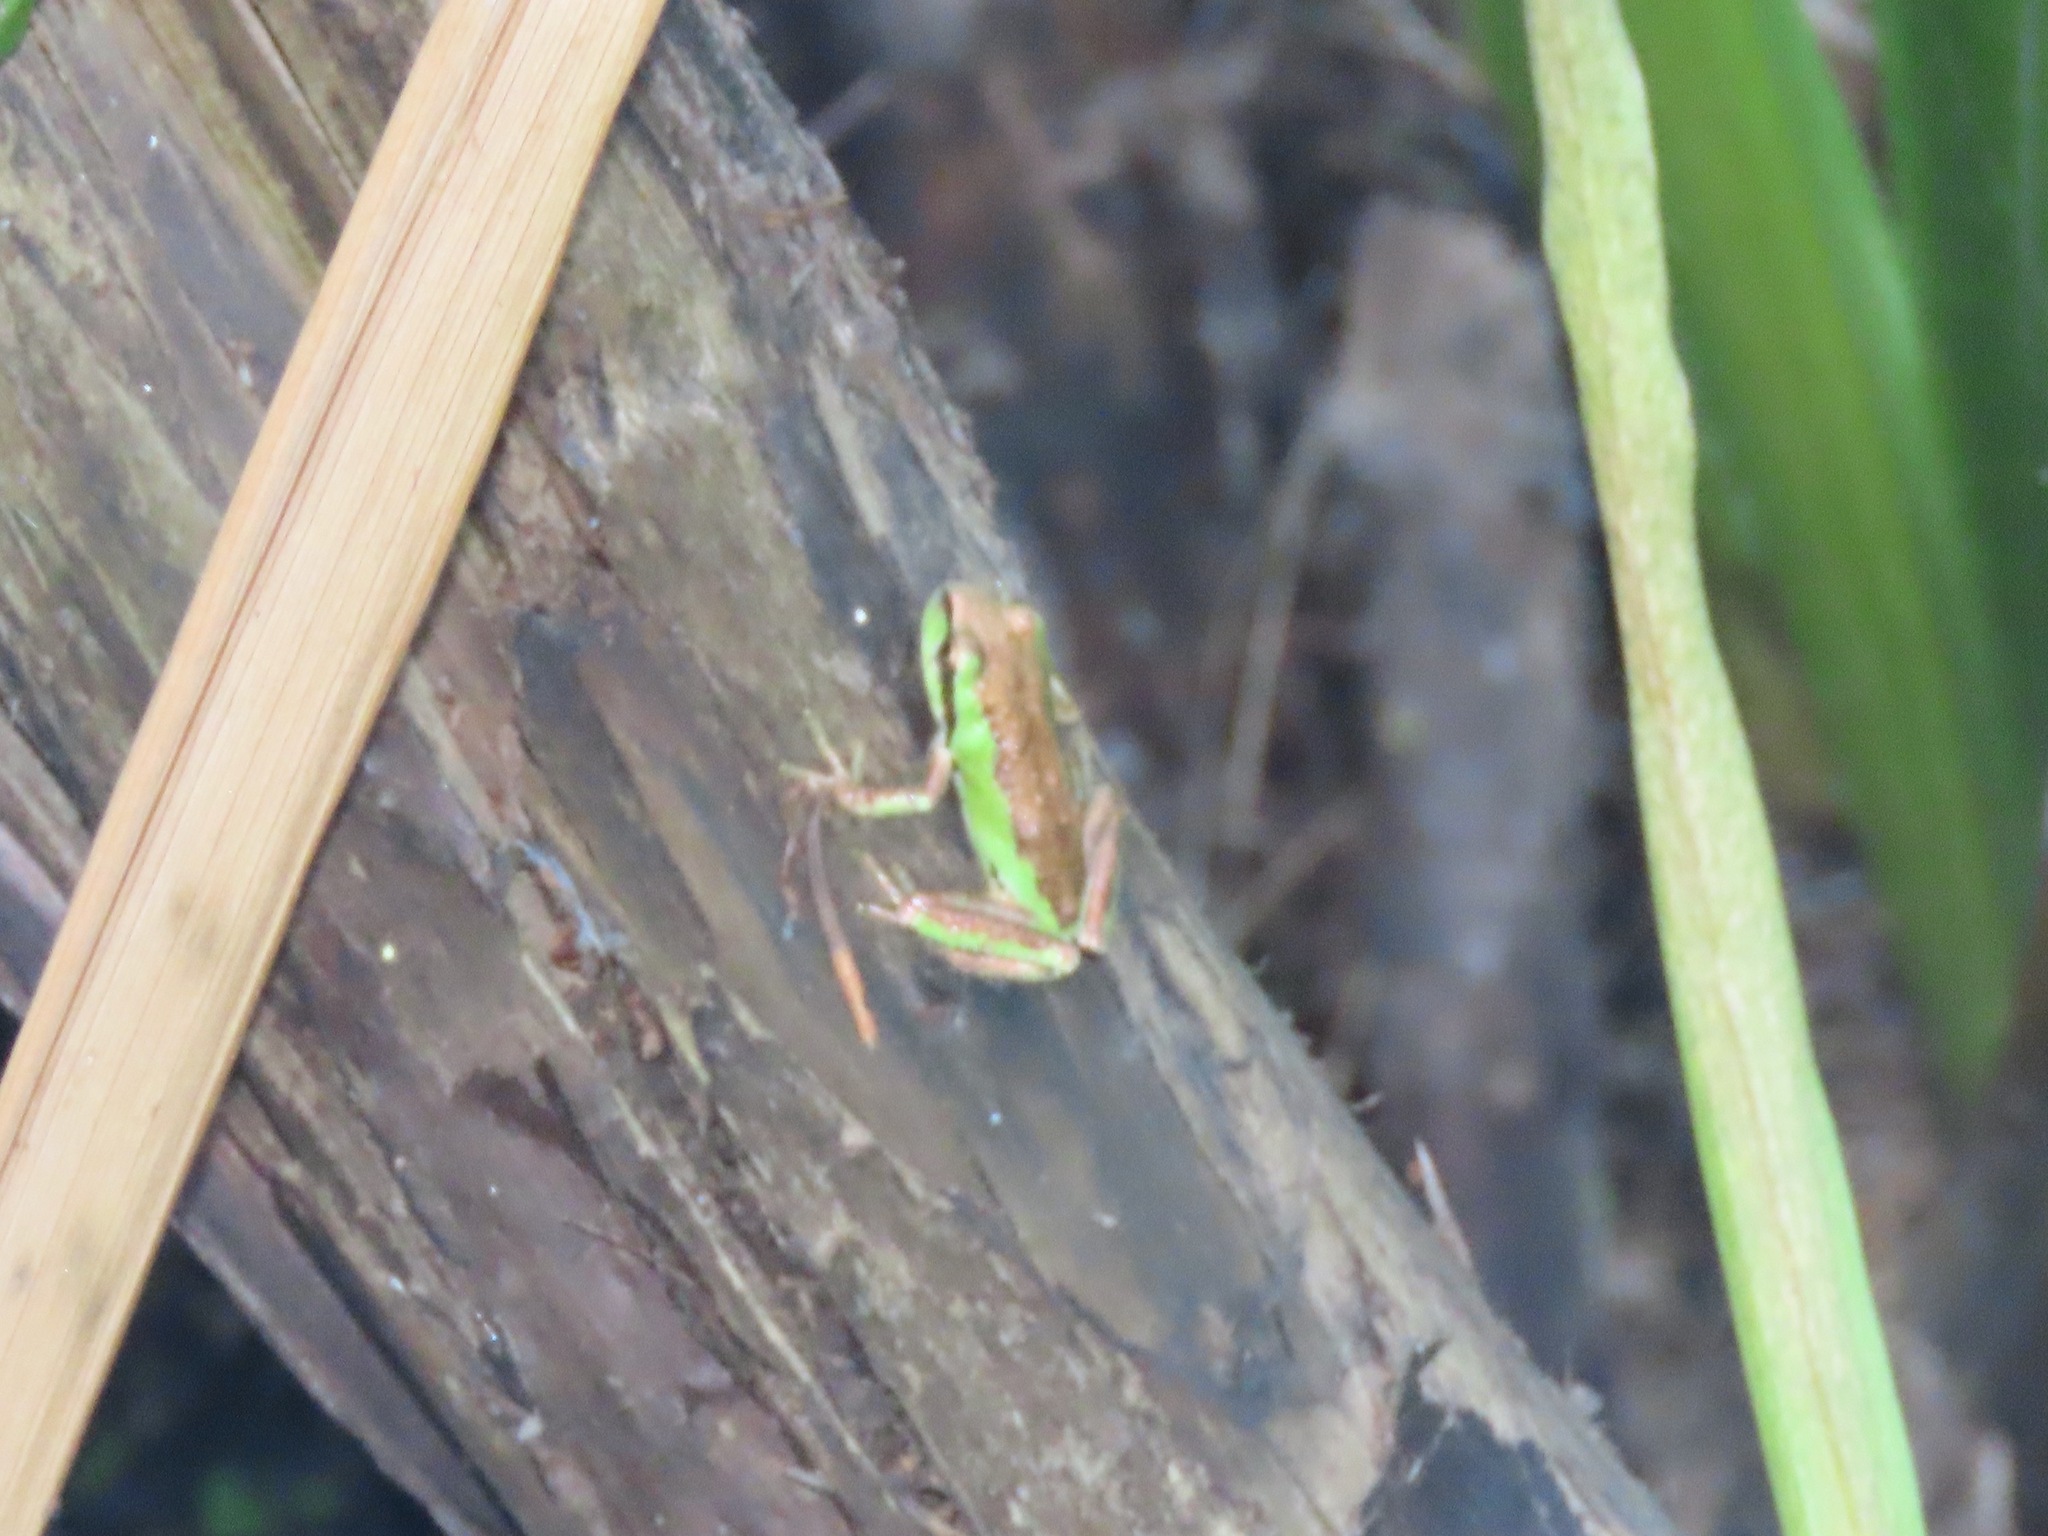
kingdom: Animalia
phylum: Chordata
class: Amphibia
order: Anura
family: Hylidae
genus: Pseudacris
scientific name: Pseudacris regilla
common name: Pacific chorus frog
